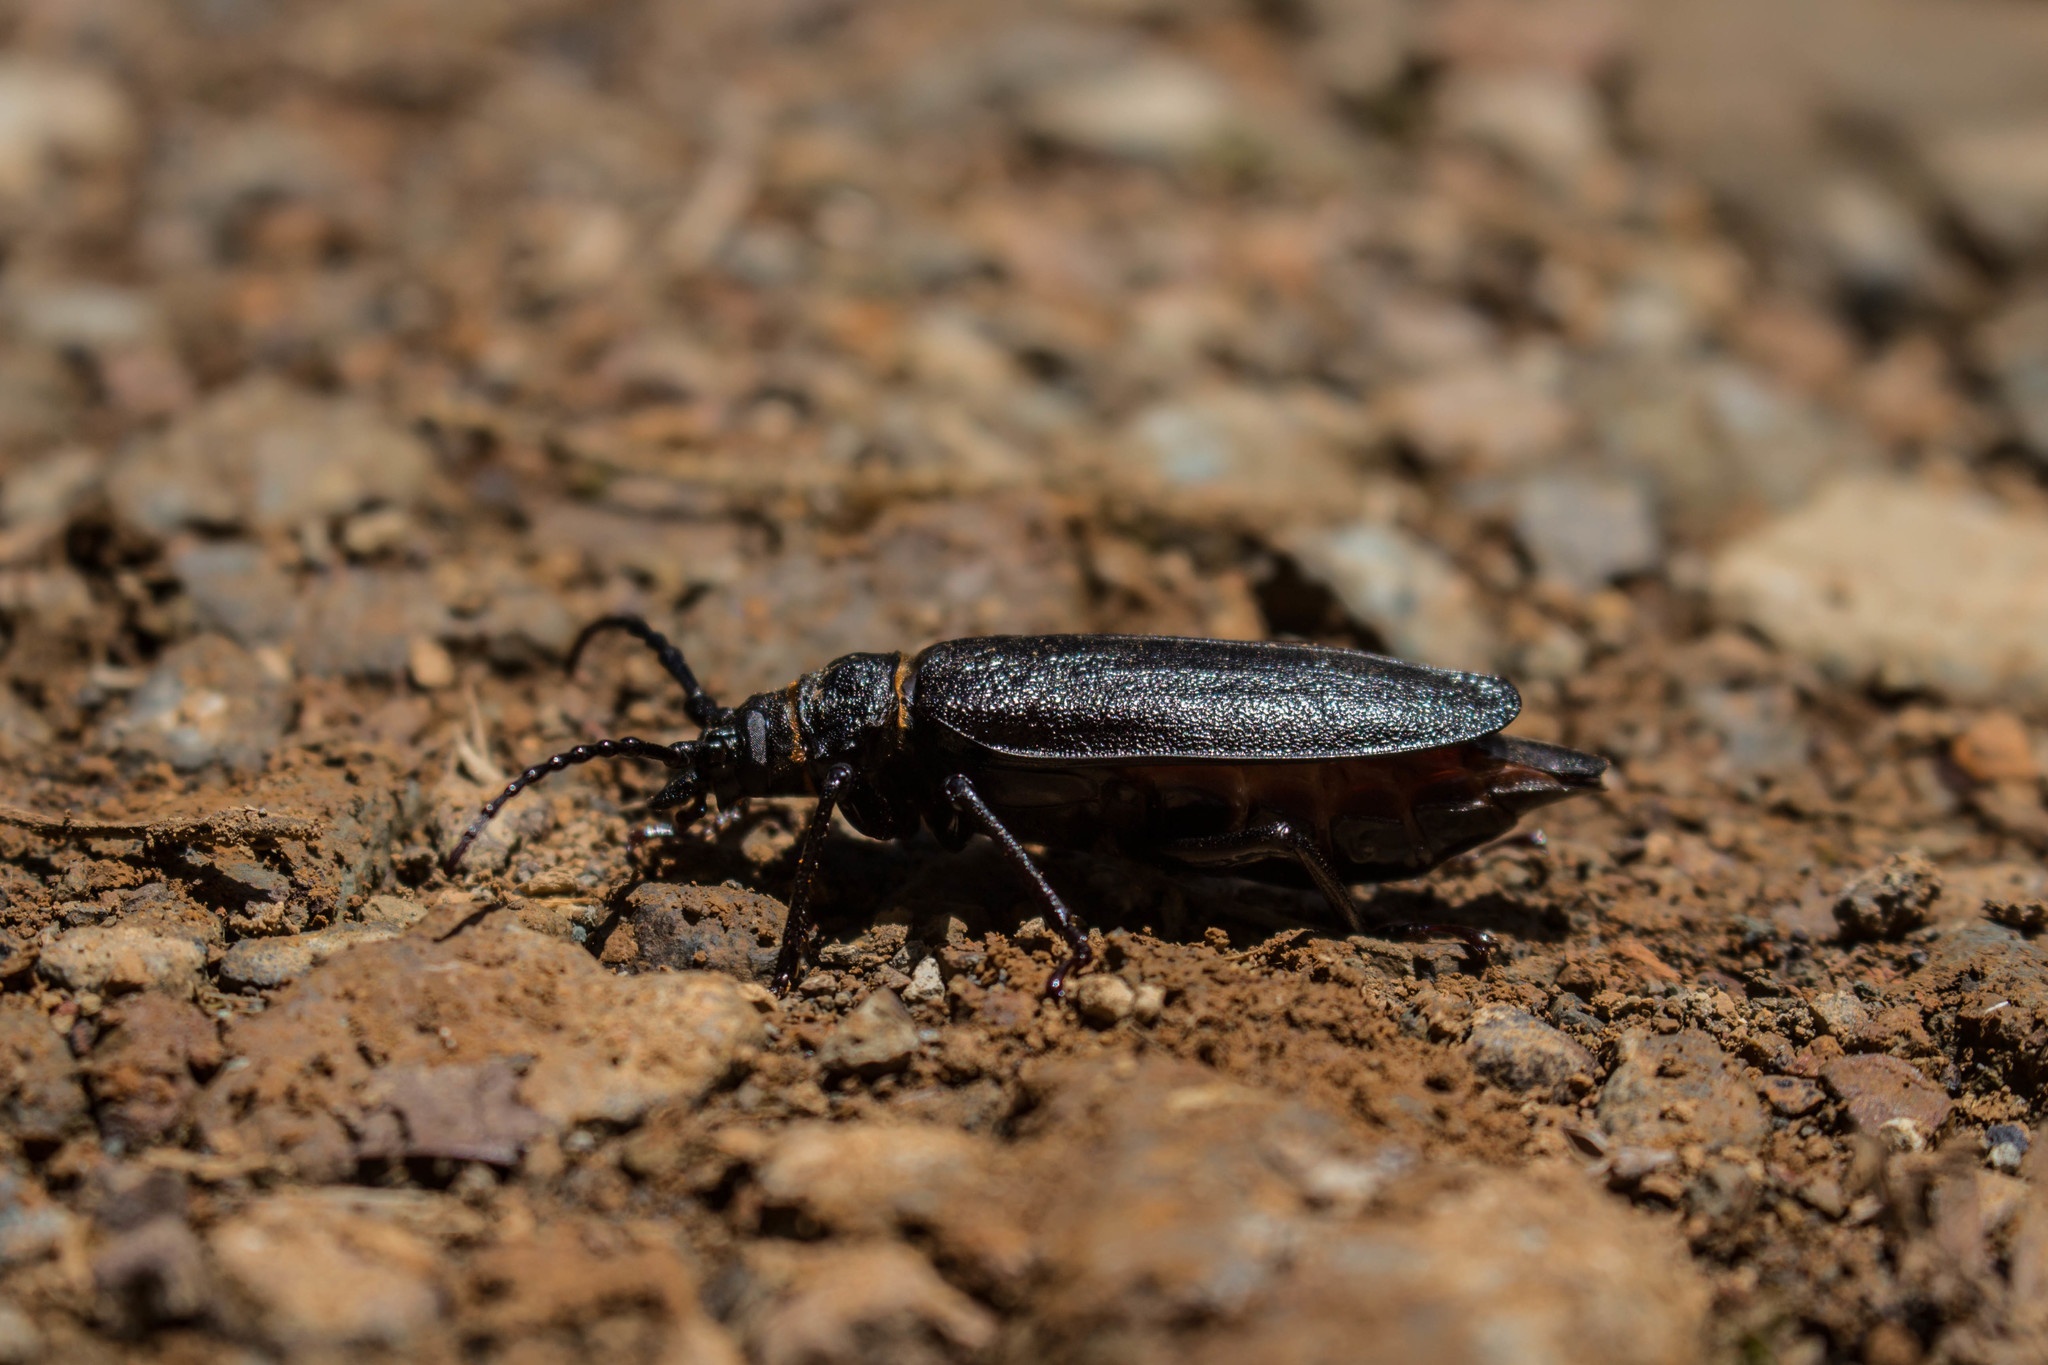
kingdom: Animalia
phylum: Arthropoda
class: Insecta
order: Coleoptera
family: Cerambycidae
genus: Derobrachus
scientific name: Derobrachus granulatus
